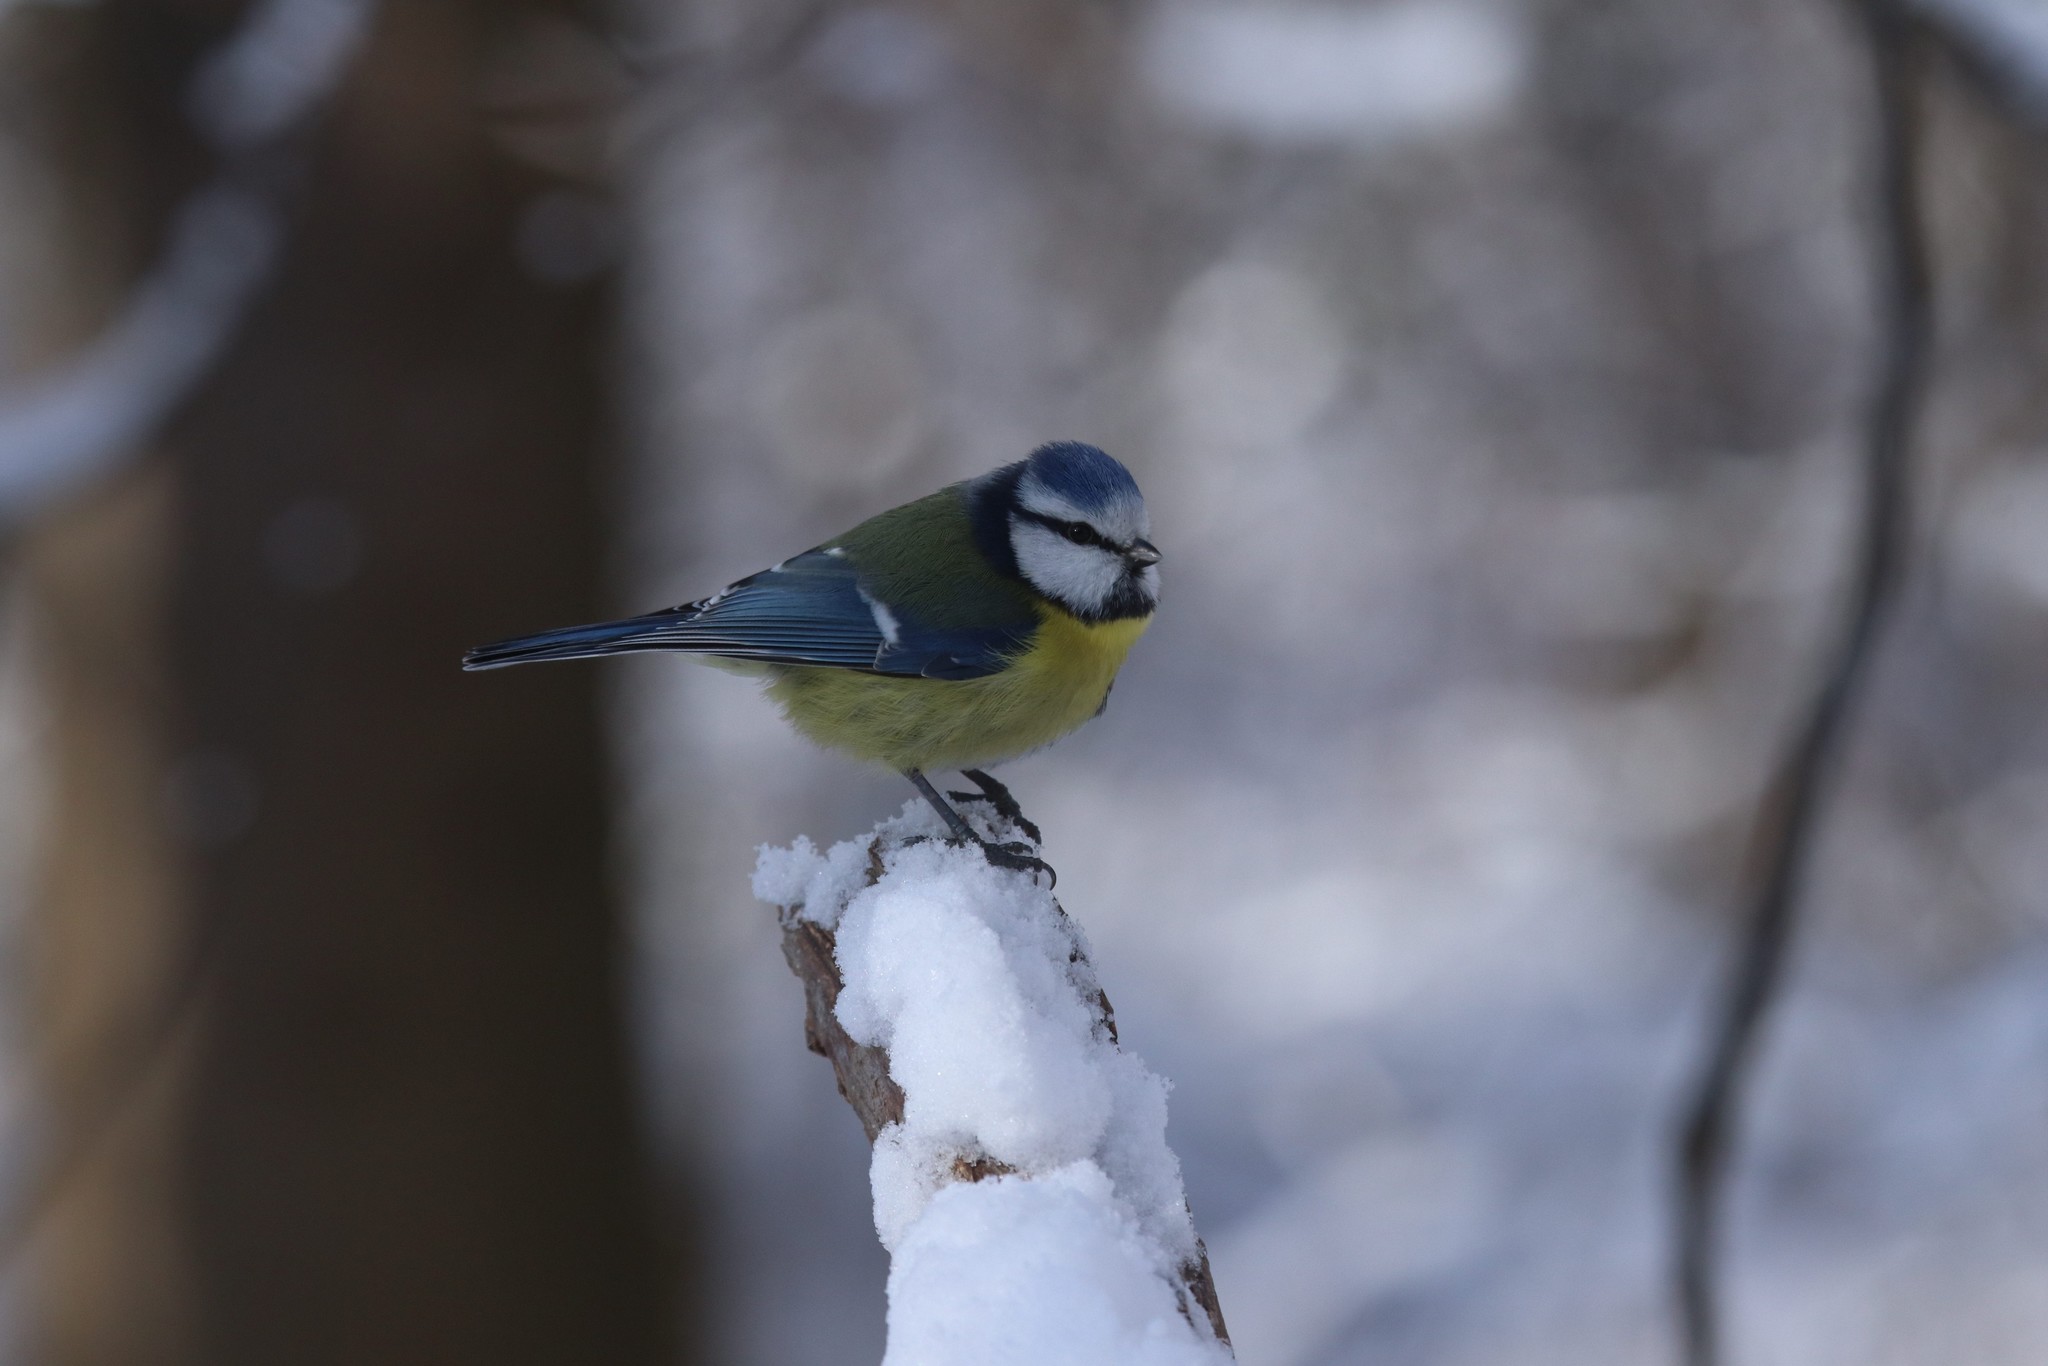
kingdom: Animalia
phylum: Chordata
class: Aves
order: Passeriformes
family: Paridae
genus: Cyanistes
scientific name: Cyanistes caeruleus
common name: Eurasian blue tit
